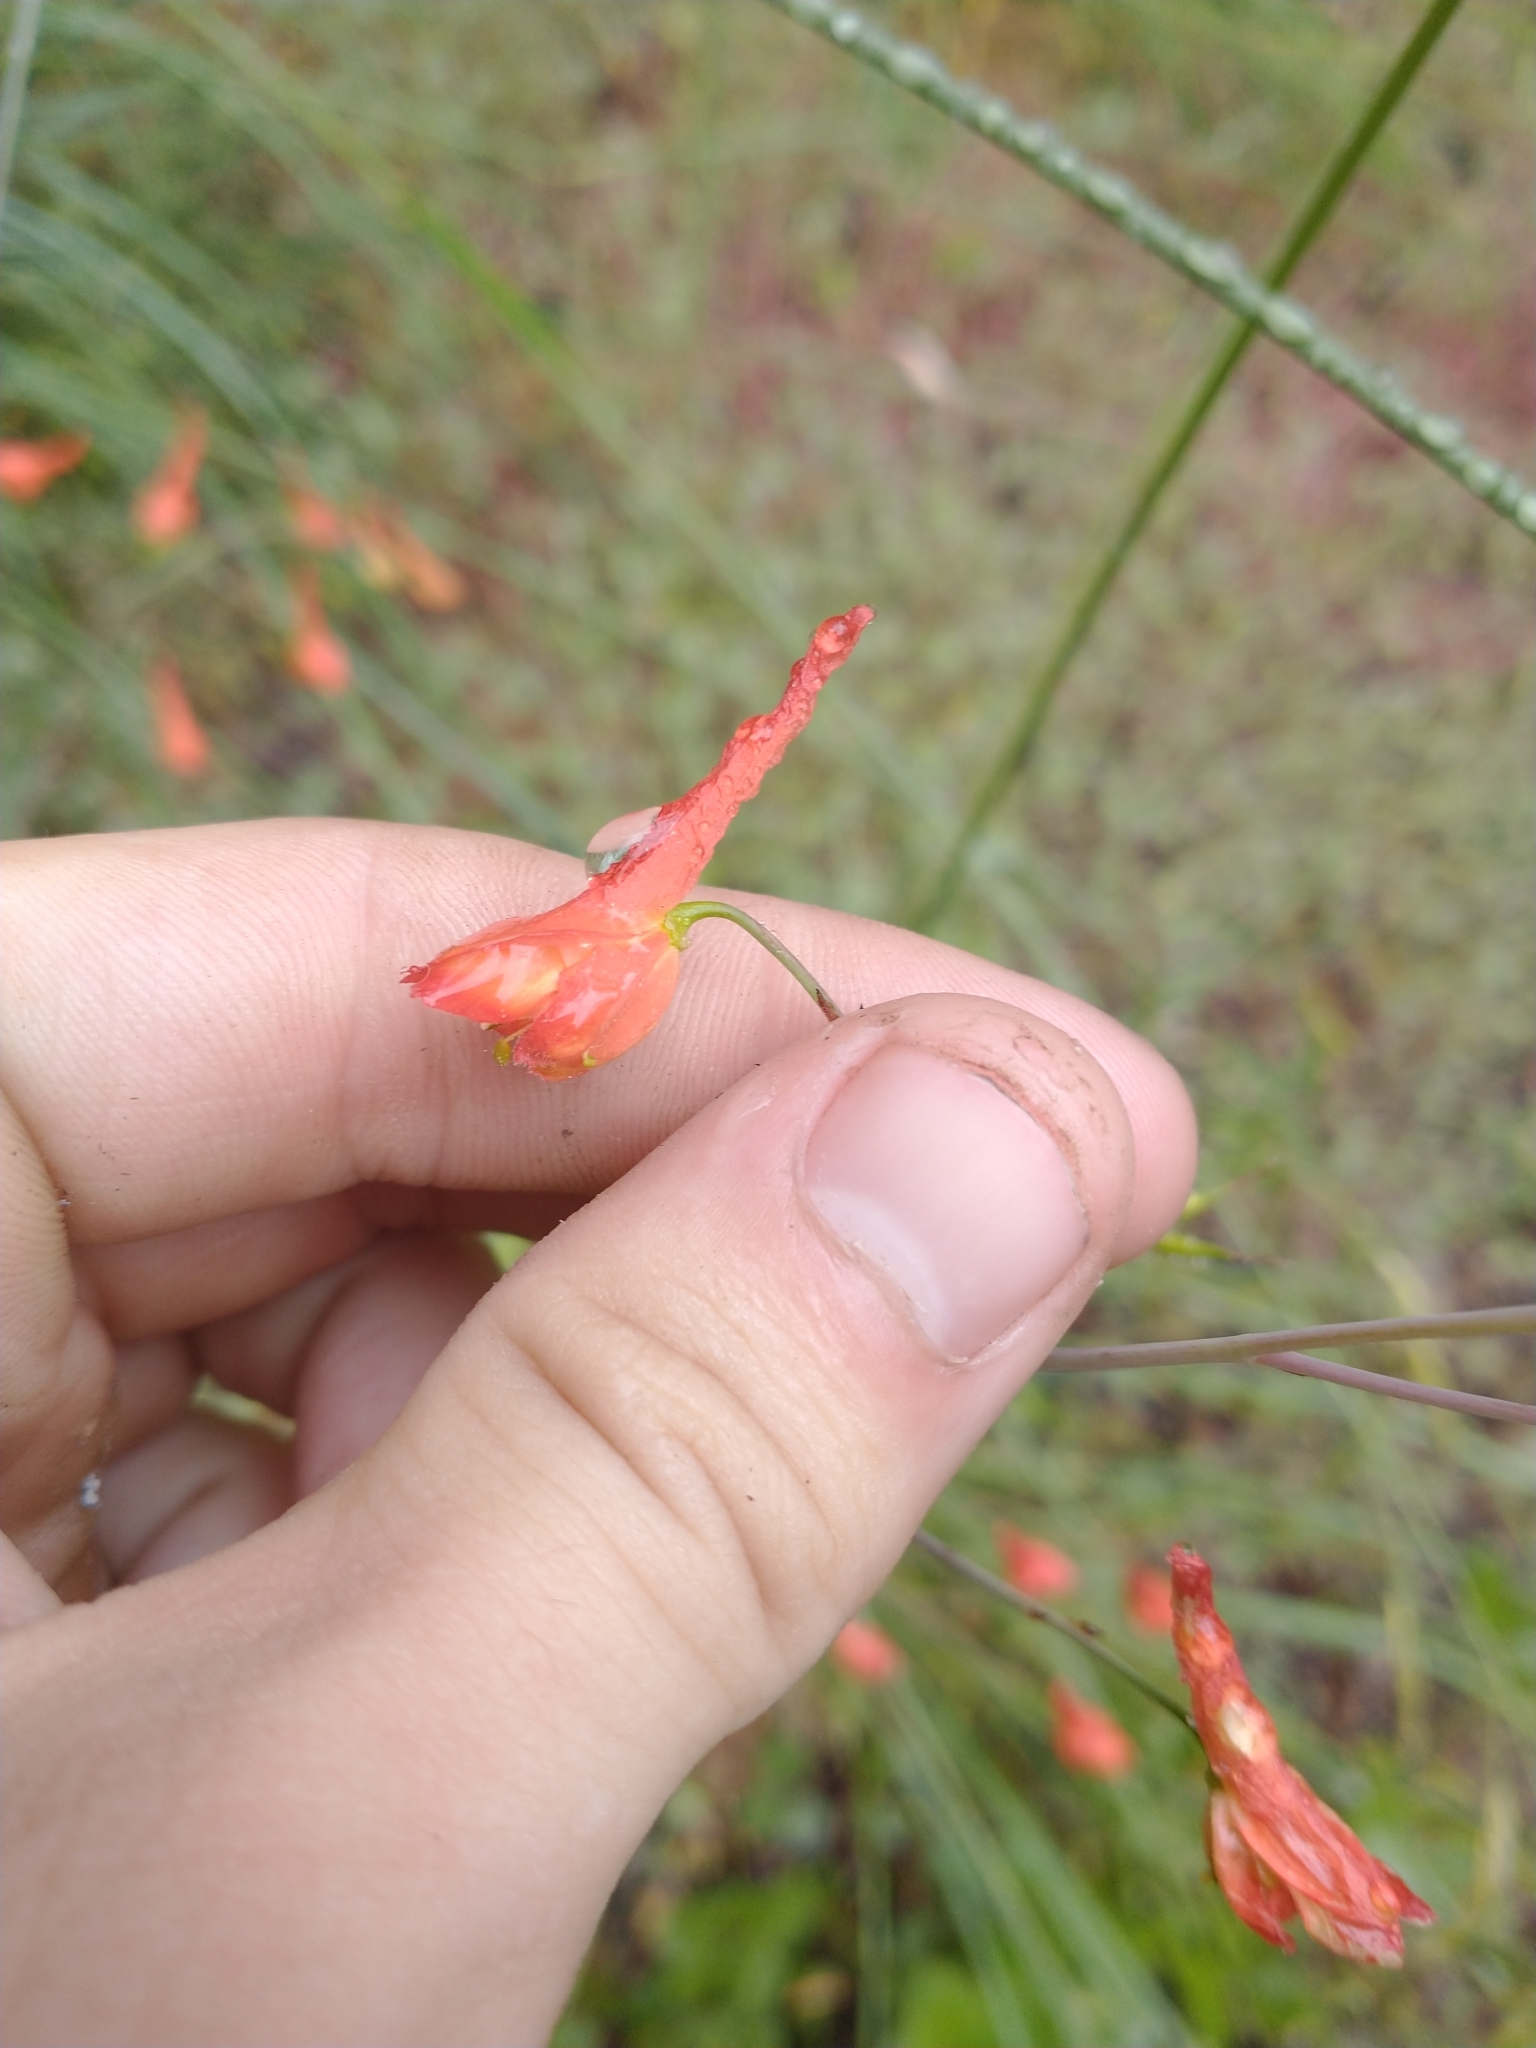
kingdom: Plantae
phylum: Tracheophyta
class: Magnoliopsida
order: Ranunculales
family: Ranunculaceae
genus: Delphinium
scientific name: Delphinium nudicaule
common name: Red larkspur
